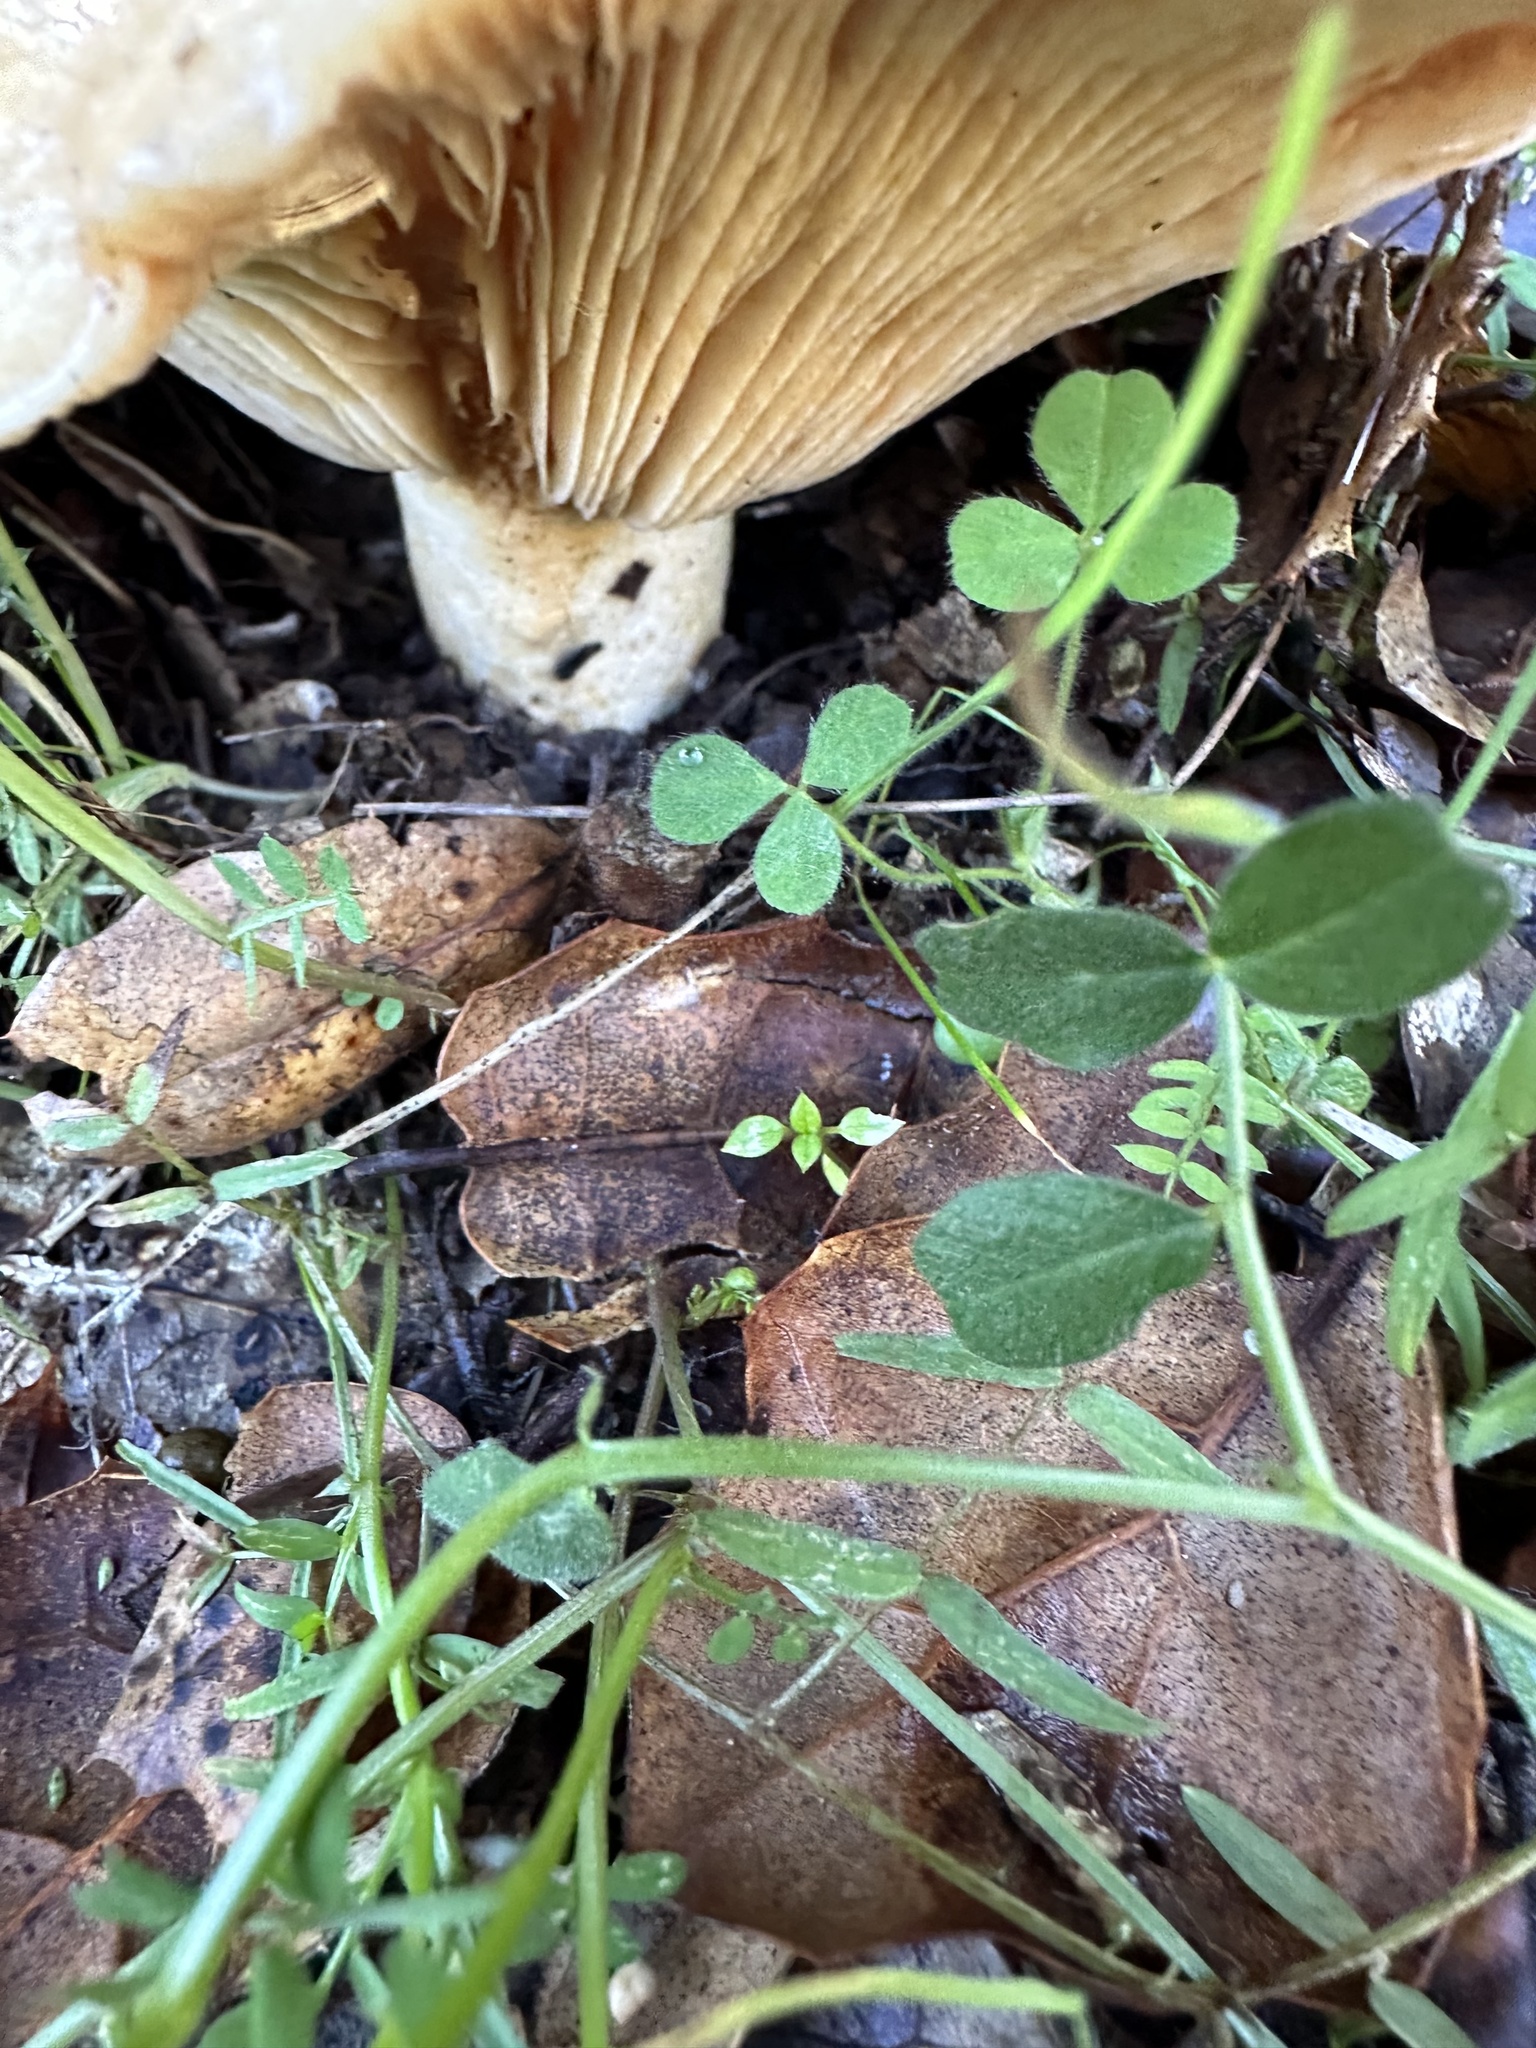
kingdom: Fungi
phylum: Basidiomycota
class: Agaricomycetes
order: Russulales
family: Russulaceae
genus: Lactarius
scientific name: Lactarius alnicola
